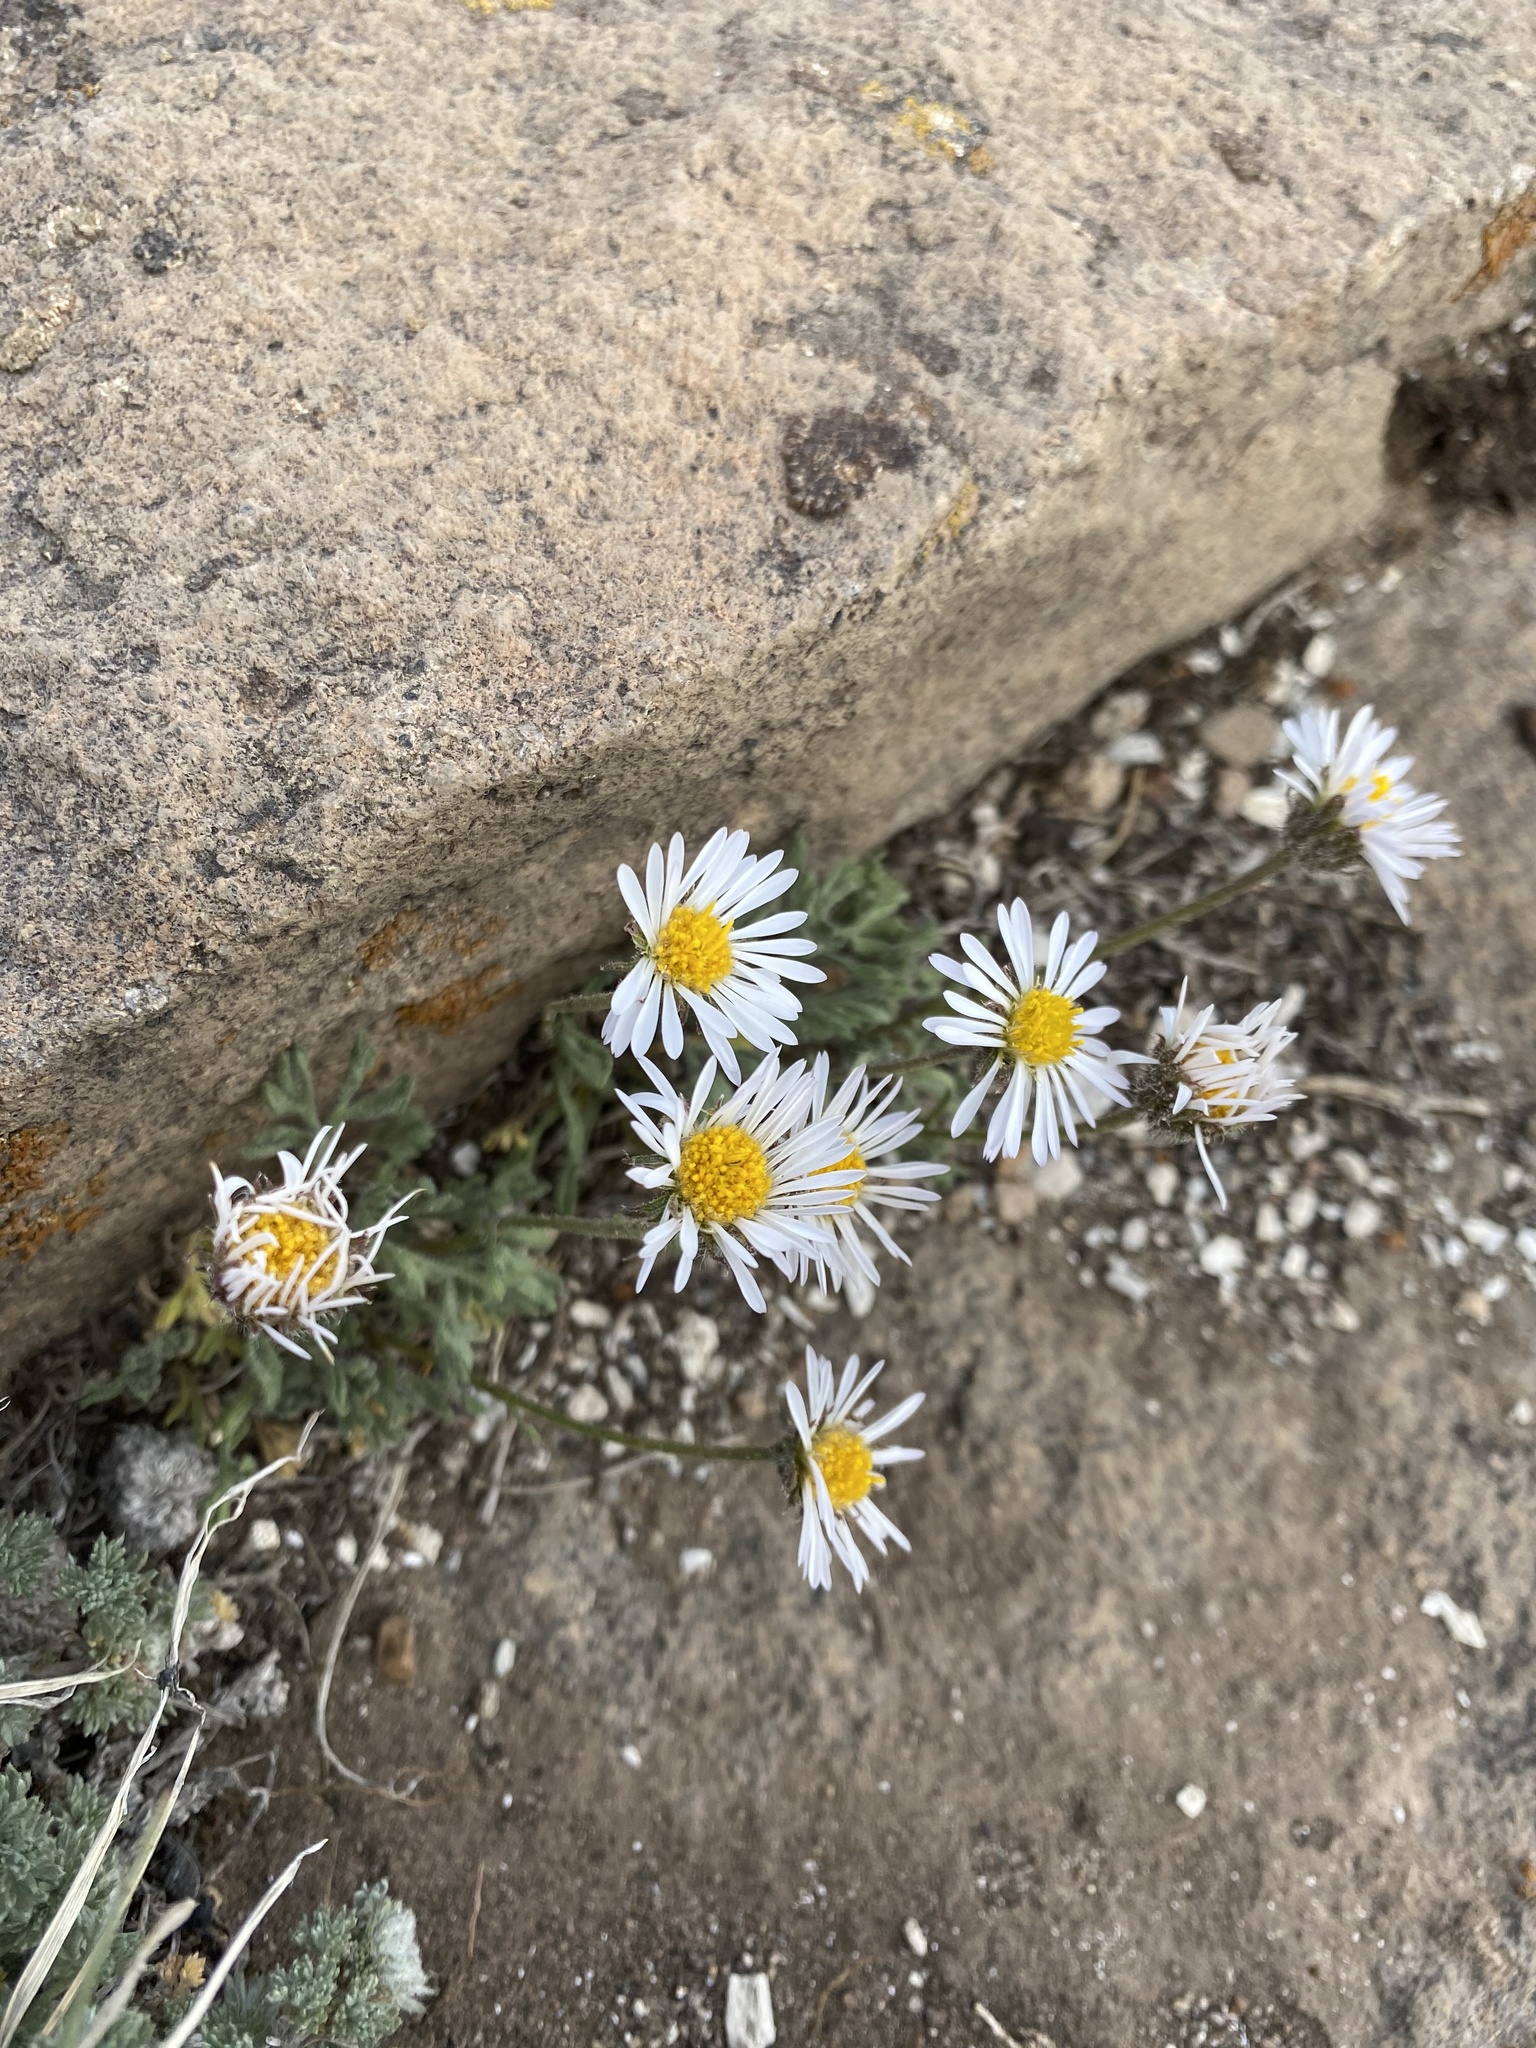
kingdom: Plantae
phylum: Tracheophyta
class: Magnoliopsida
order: Asterales
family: Asteraceae
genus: Erigeron
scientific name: Erigeron compositus
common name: Dwarf mountain fleabane
